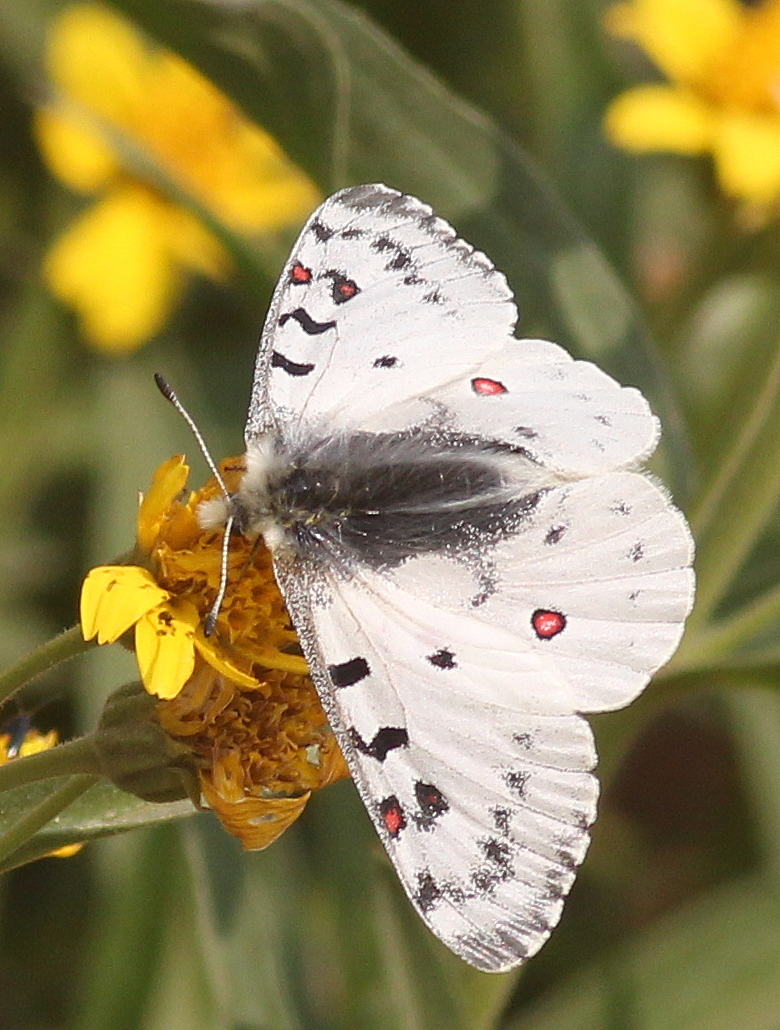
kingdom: Animalia
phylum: Arthropoda
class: Insecta
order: Lepidoptera
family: Papilionidae
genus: Parnassius
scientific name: Parnassius smintheus
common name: Mountain parnassian
